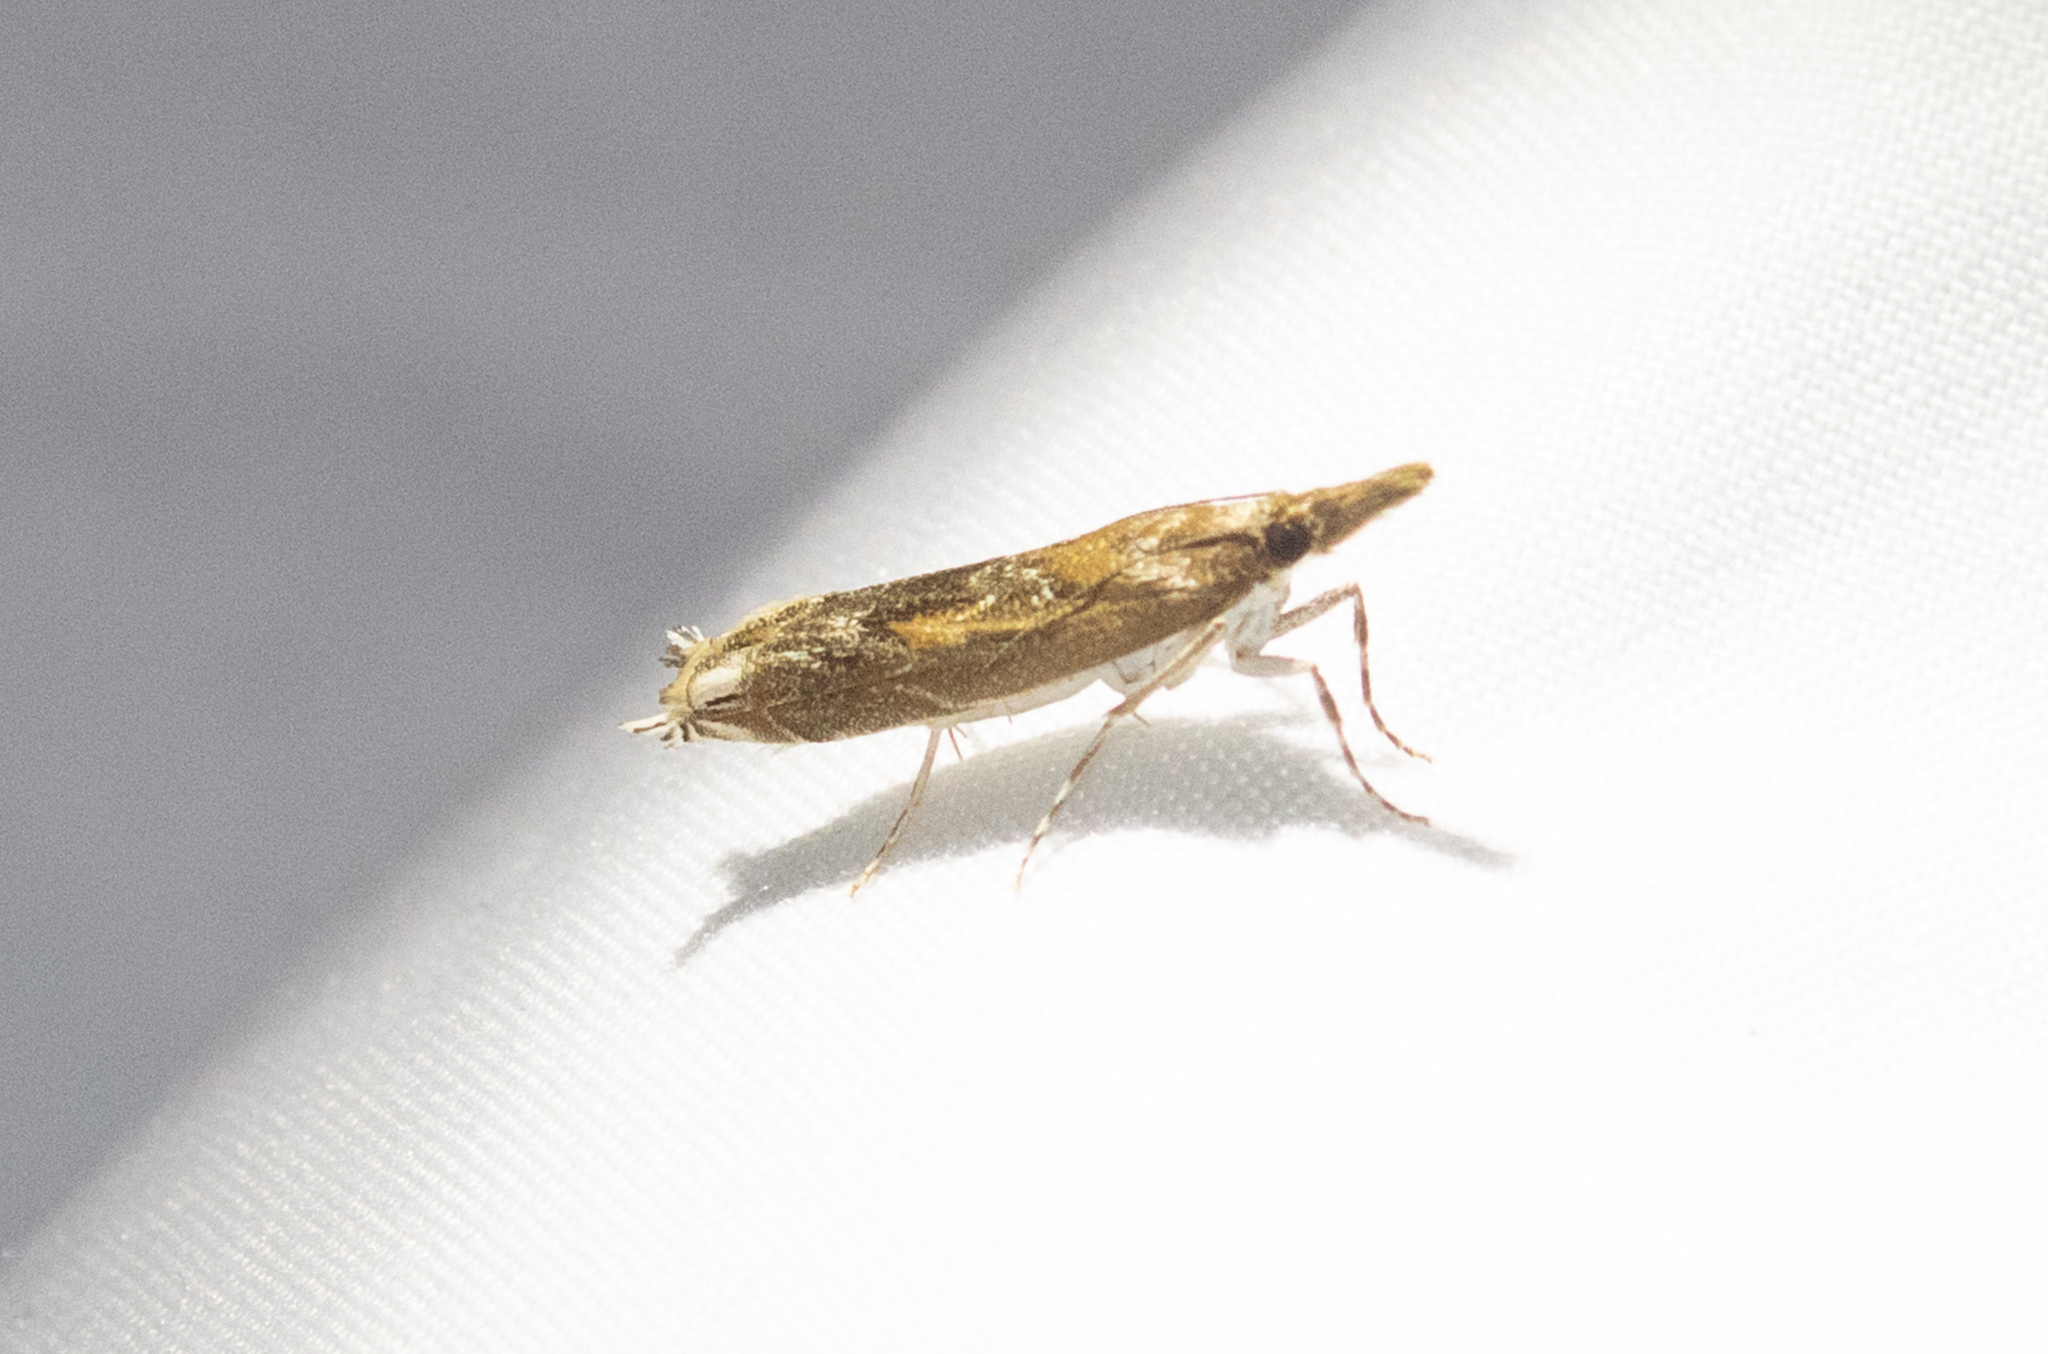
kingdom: Animalia
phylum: Arthropoda
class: Insecta
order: Lepidoptera
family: Crambidae
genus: Prionapteryx
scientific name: Prionapteryx achatina
